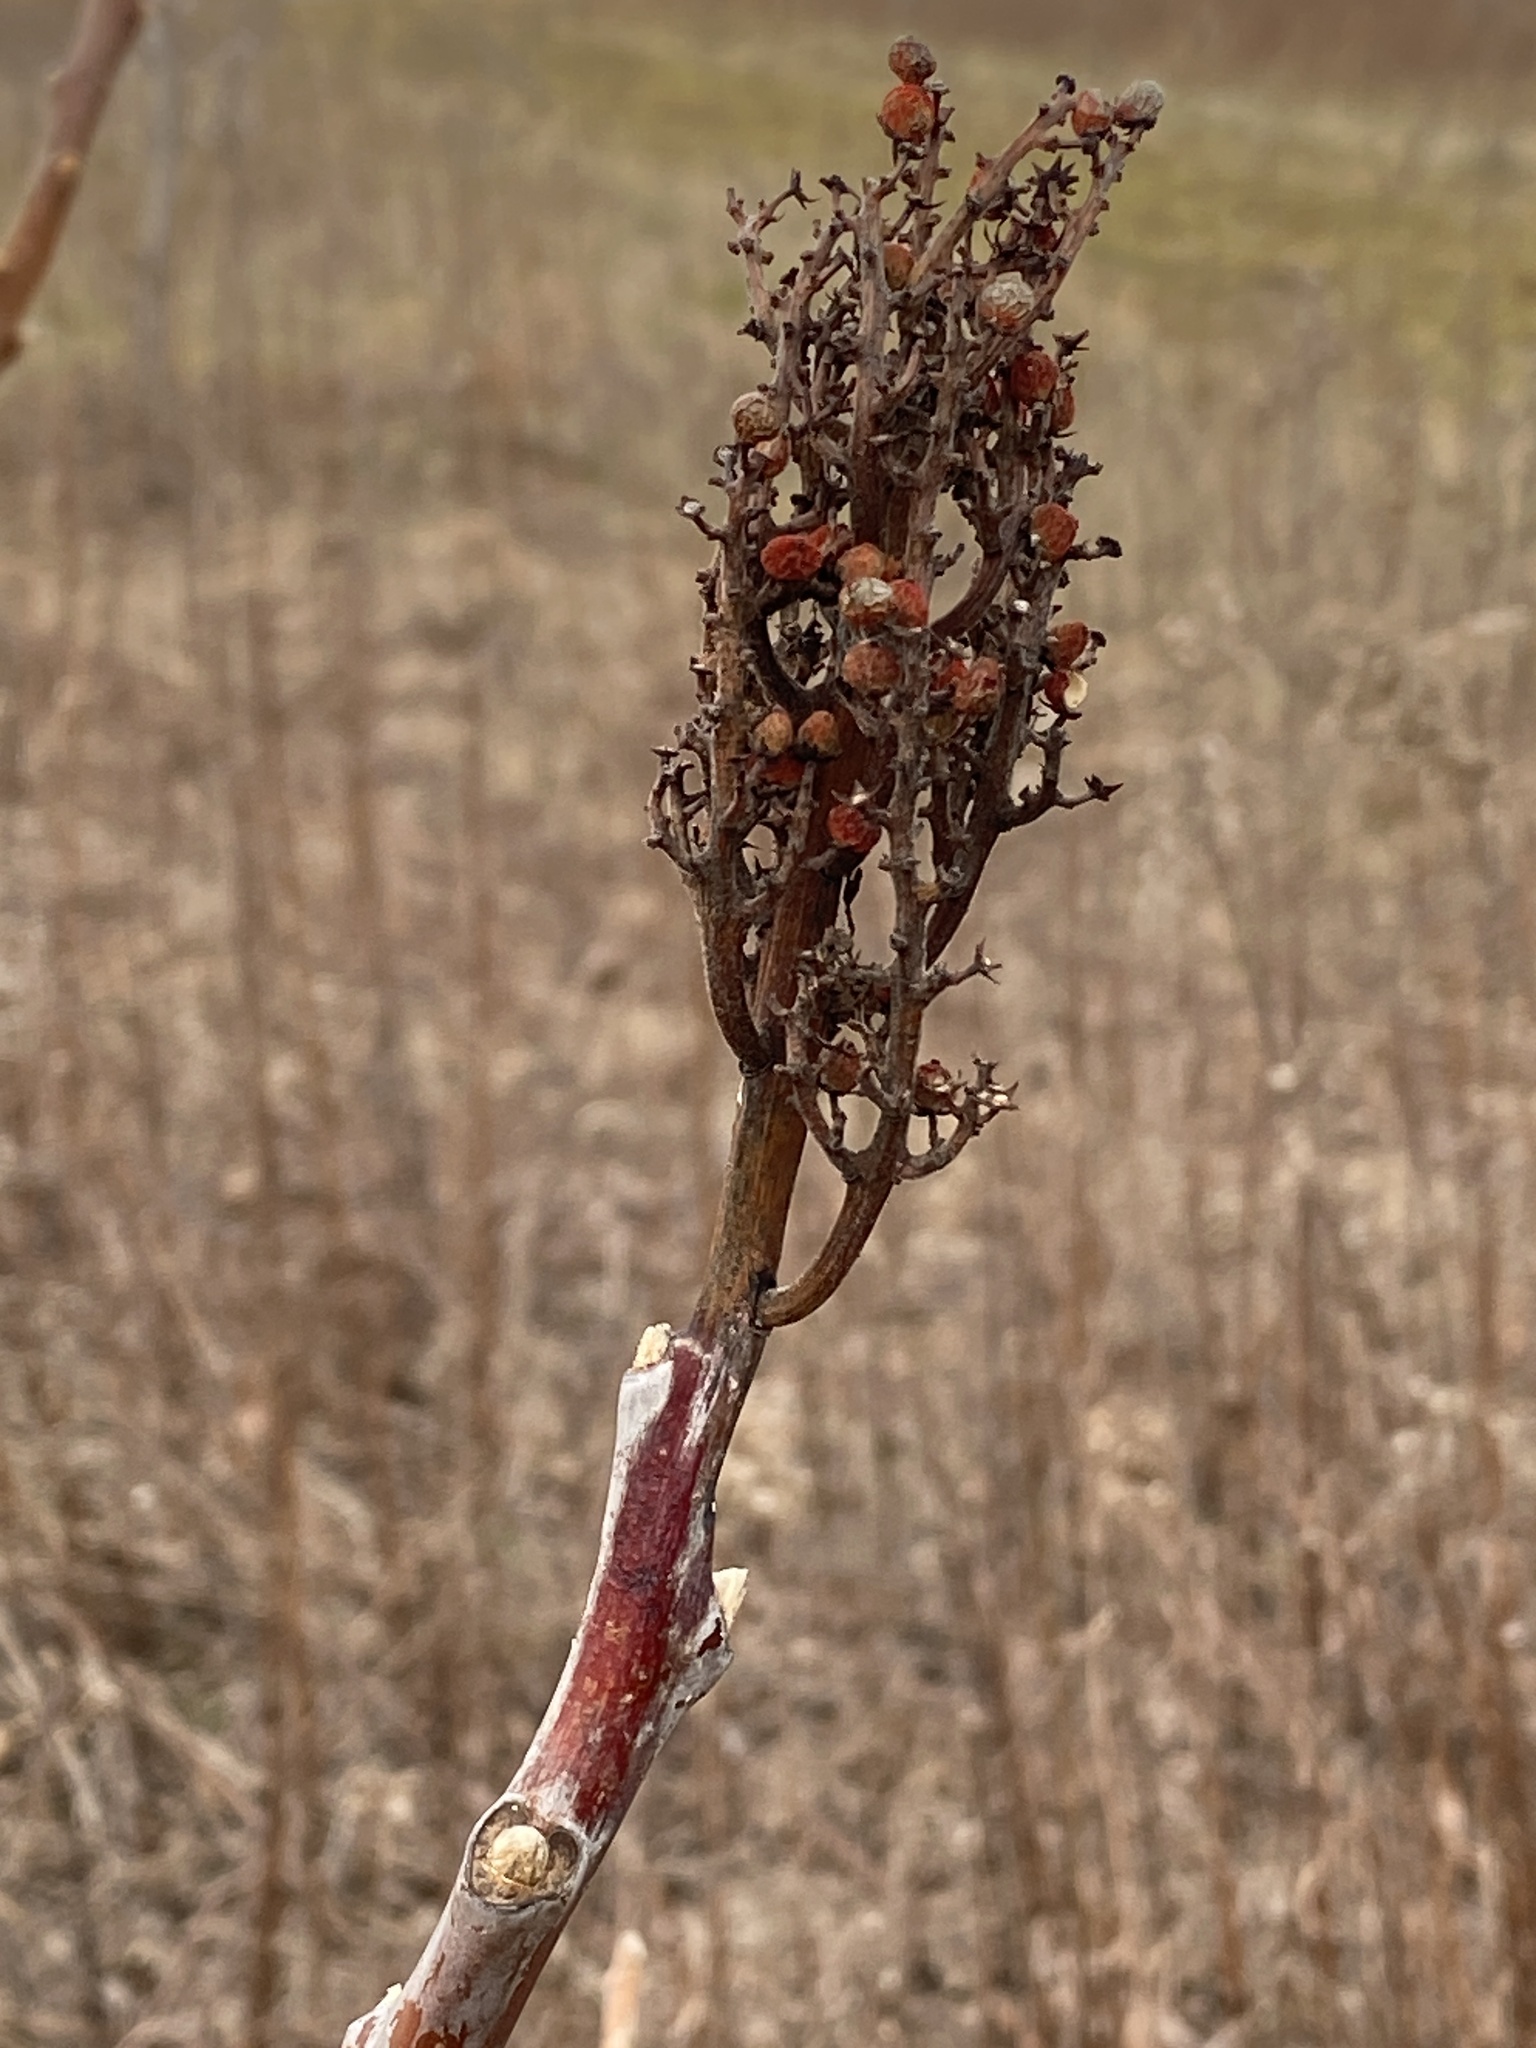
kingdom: Plantae
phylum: Tracheophyta
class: Magnoliopsida
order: Sapindales
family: Anacardiaceae
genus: Rhus
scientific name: Rhus glabra
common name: Scarlet sumac
